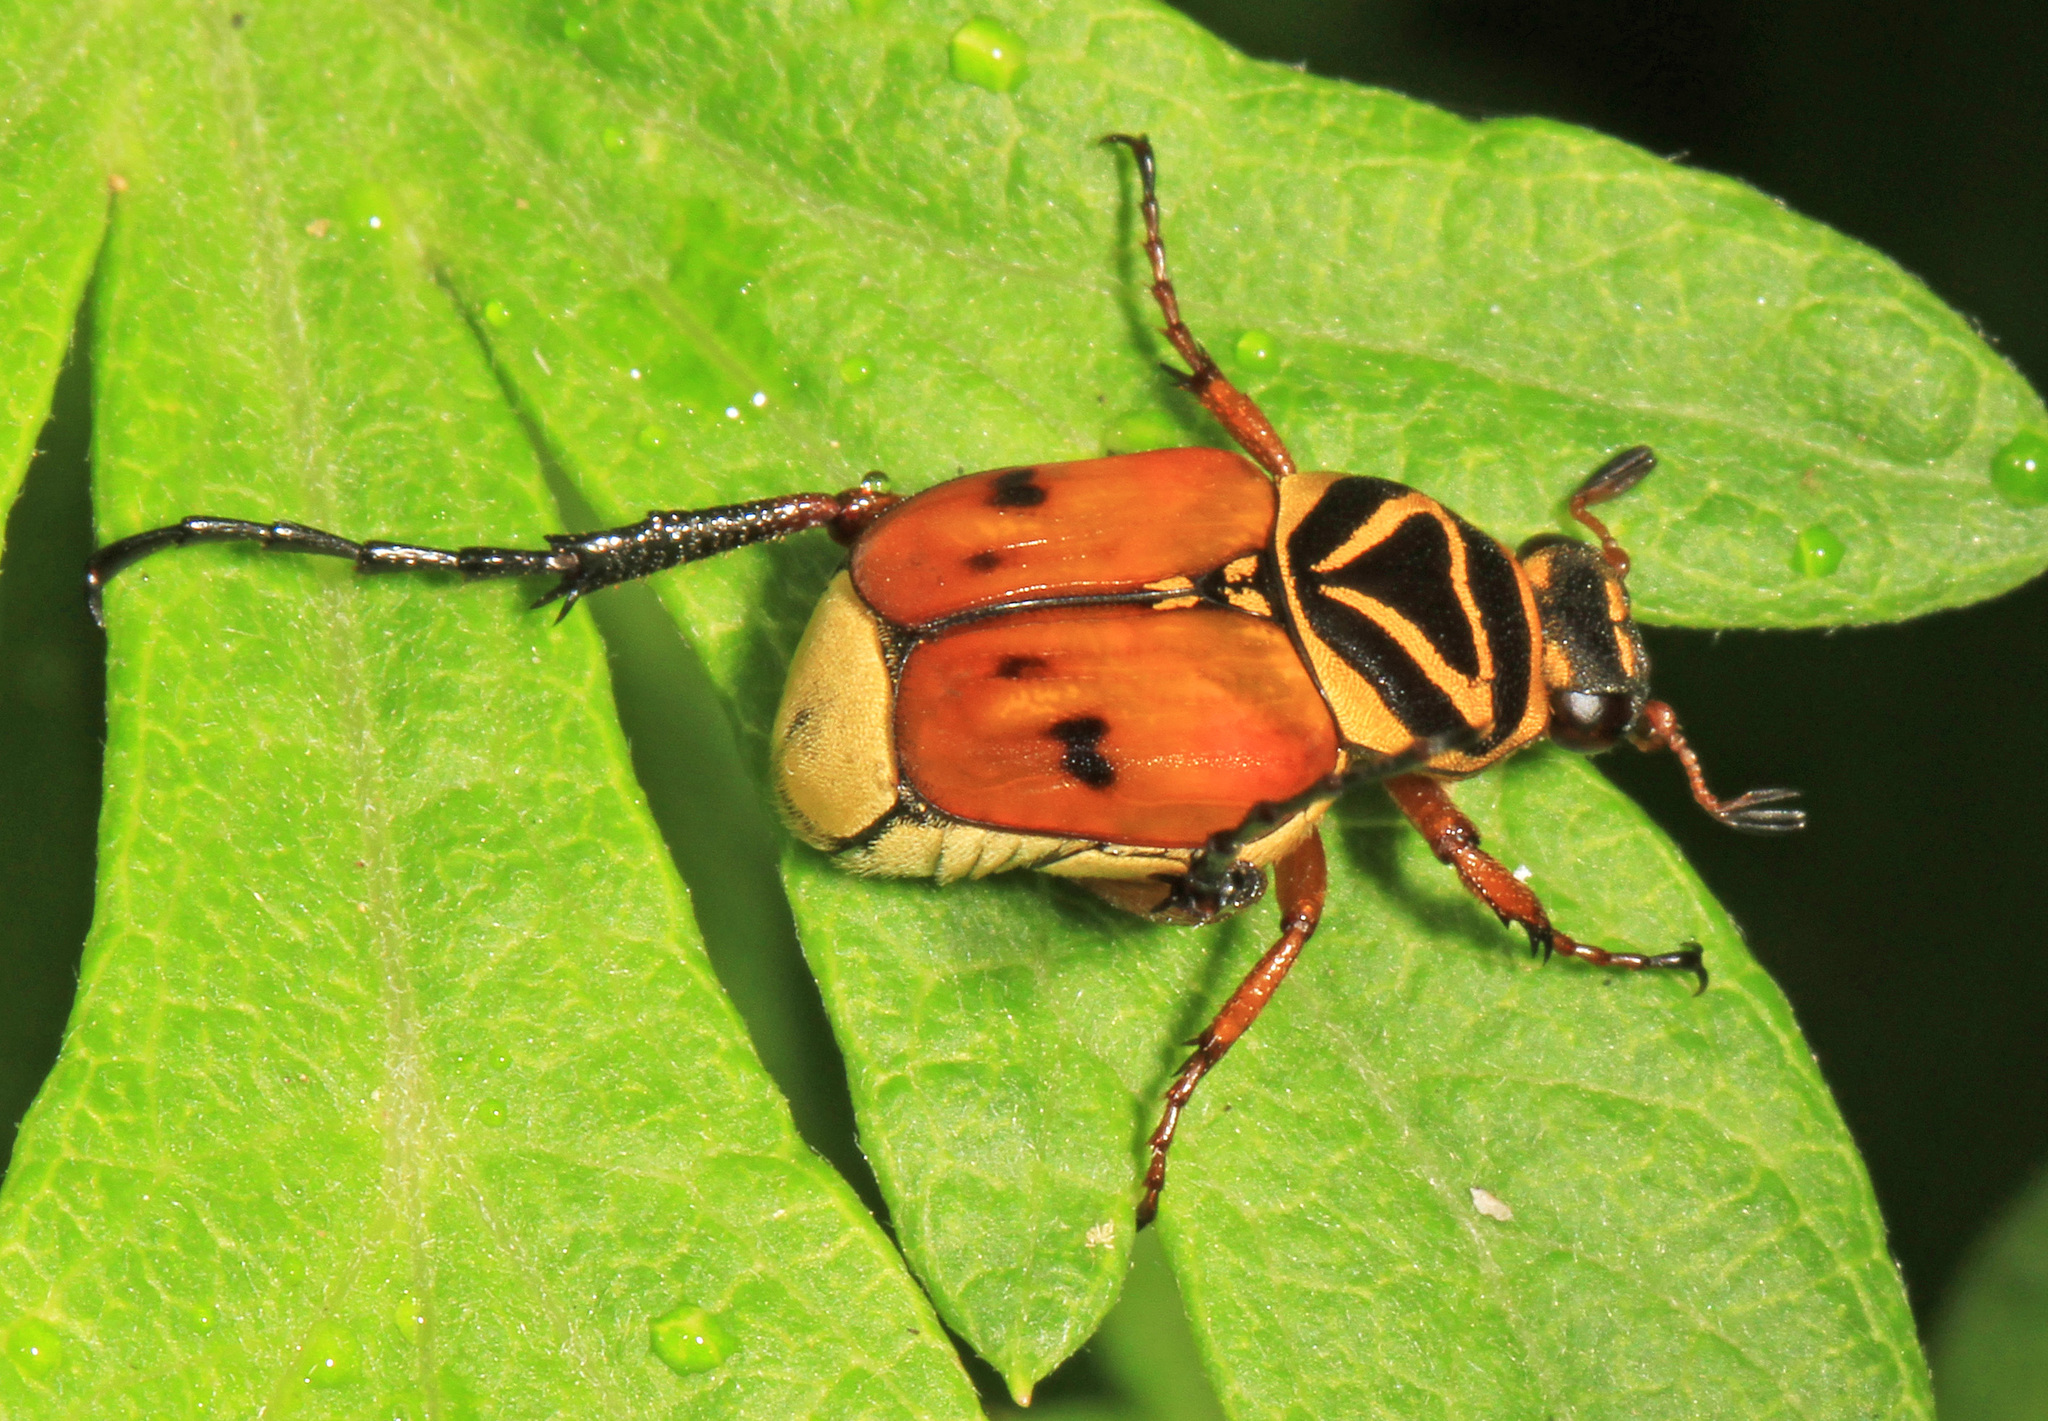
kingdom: Animalia
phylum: Arthropoda
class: Insecta
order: Coleoptera
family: Scarabaeidae
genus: Trigonopeltastes
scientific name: Trigonopeltastes delta
